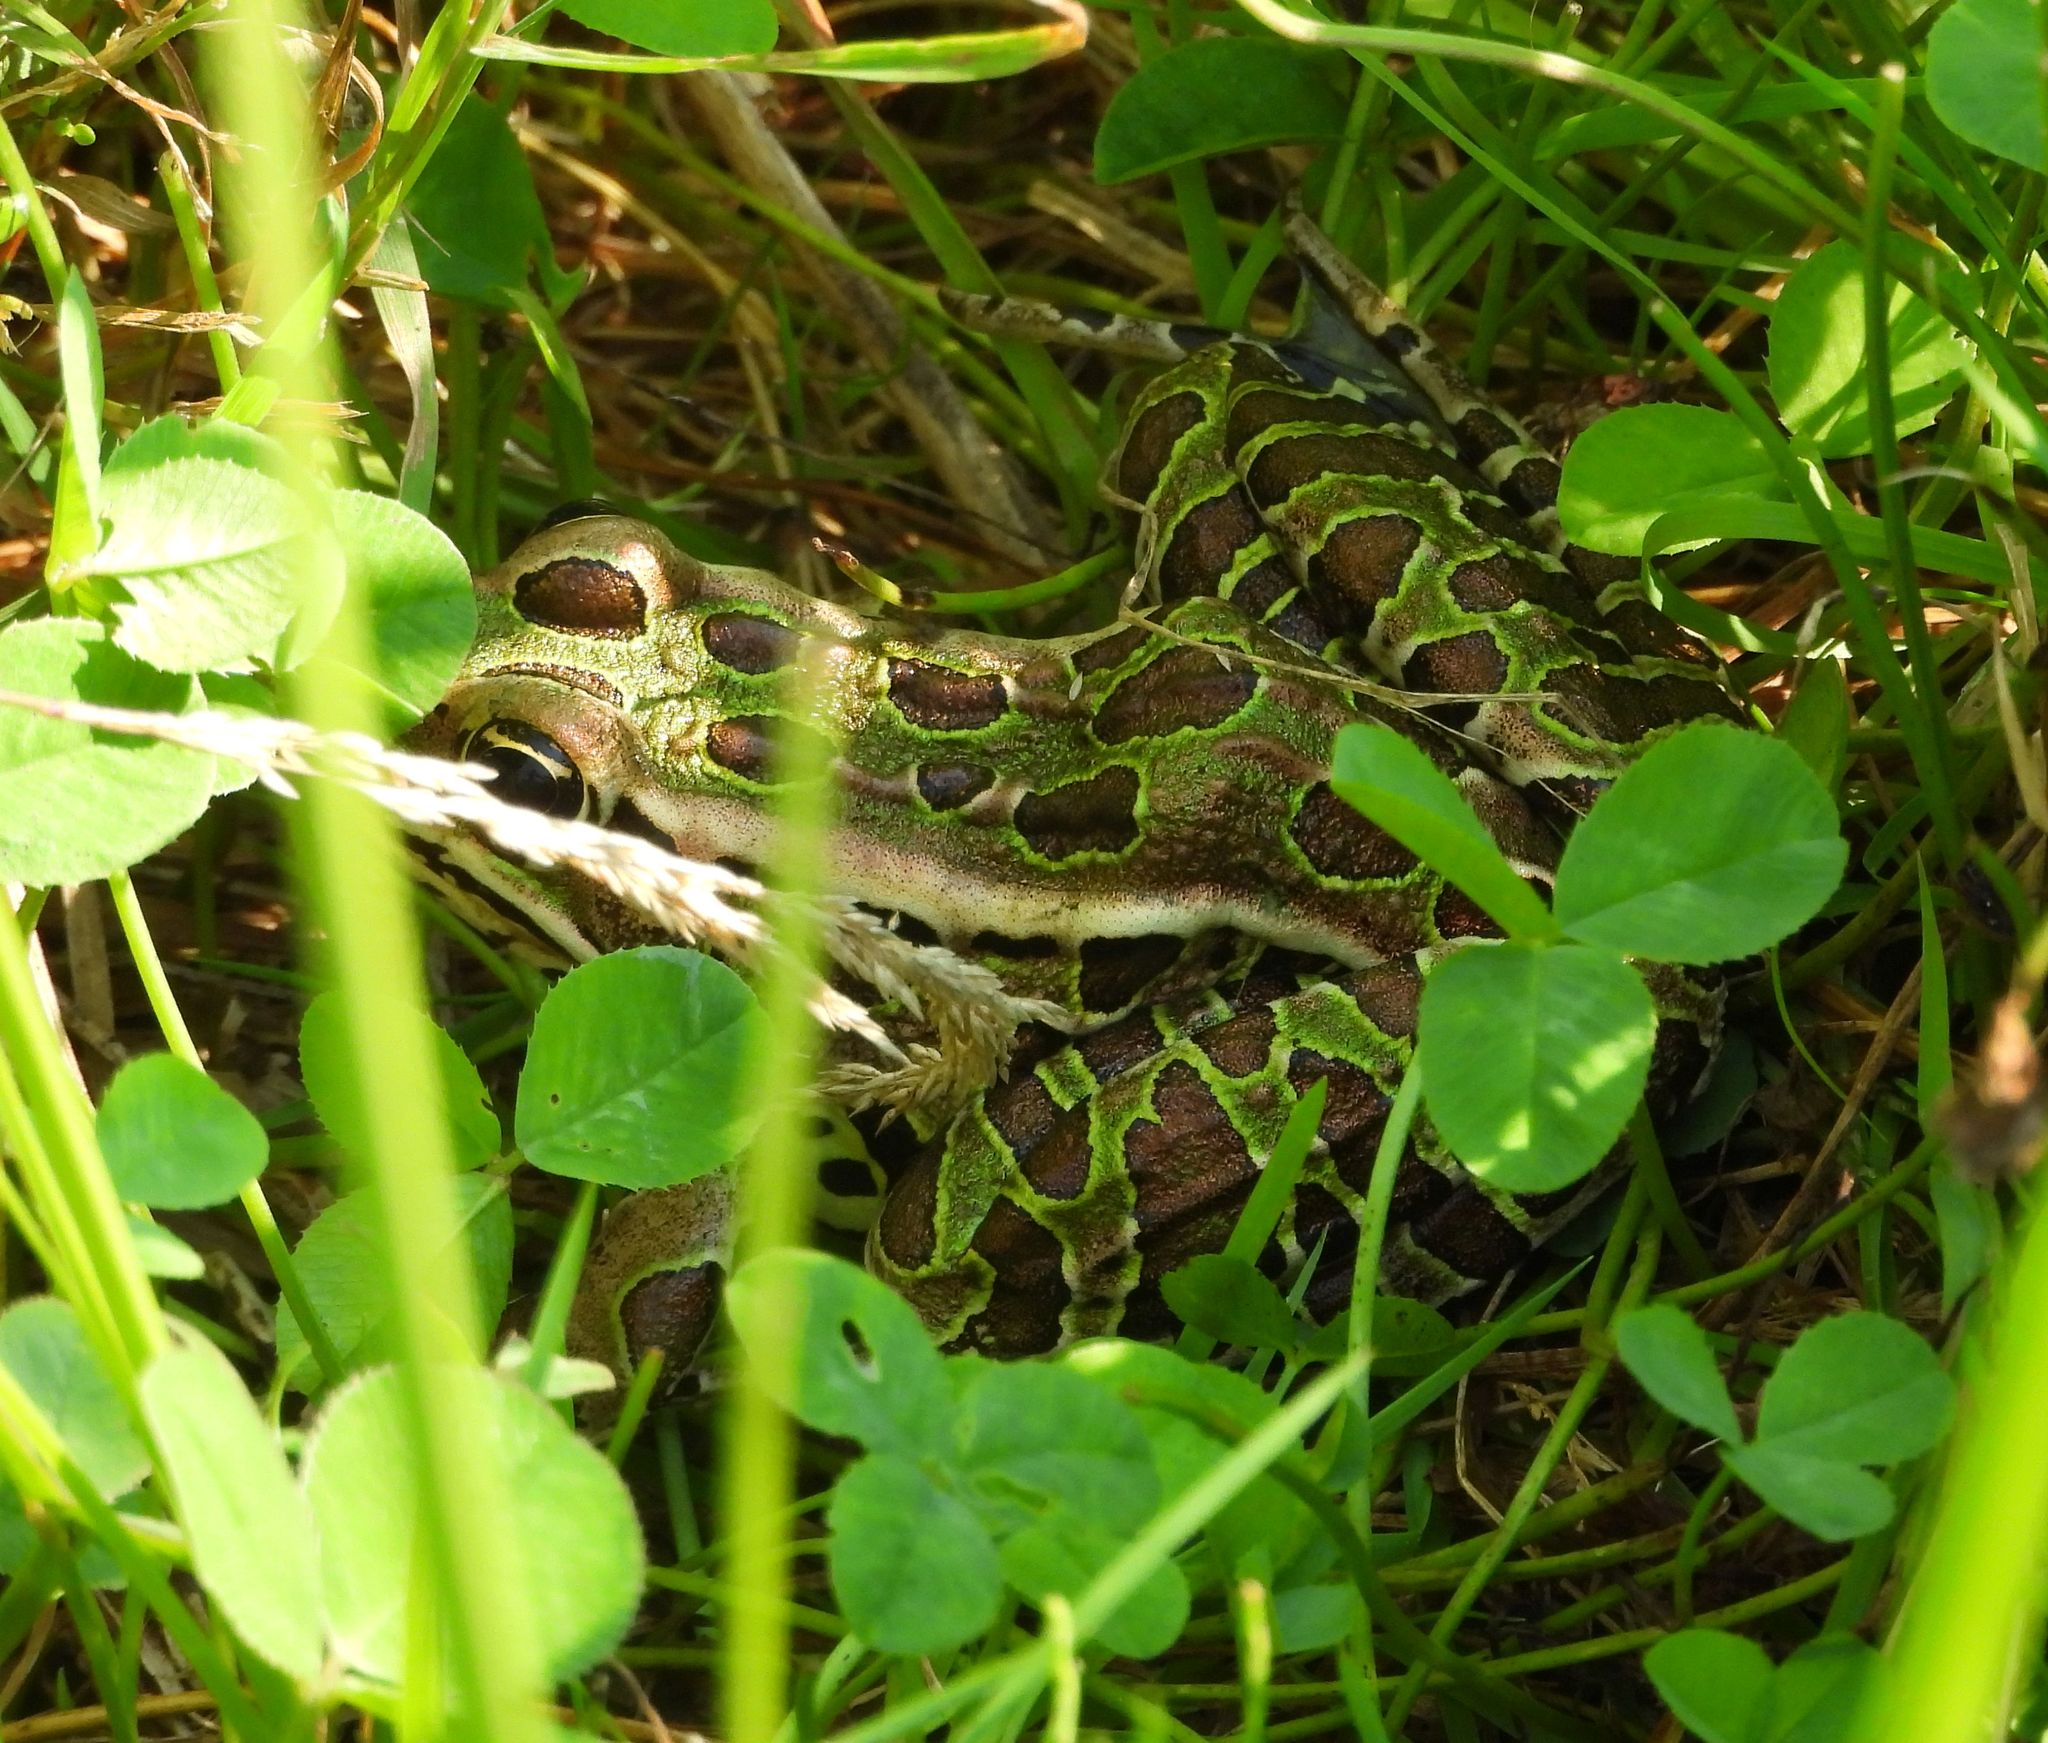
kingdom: Animalia
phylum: Chordata
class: Amphibia
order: Anura
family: Ranidae
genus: Lithobates
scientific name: Lithobates pipiens
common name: Northern leopard frog
